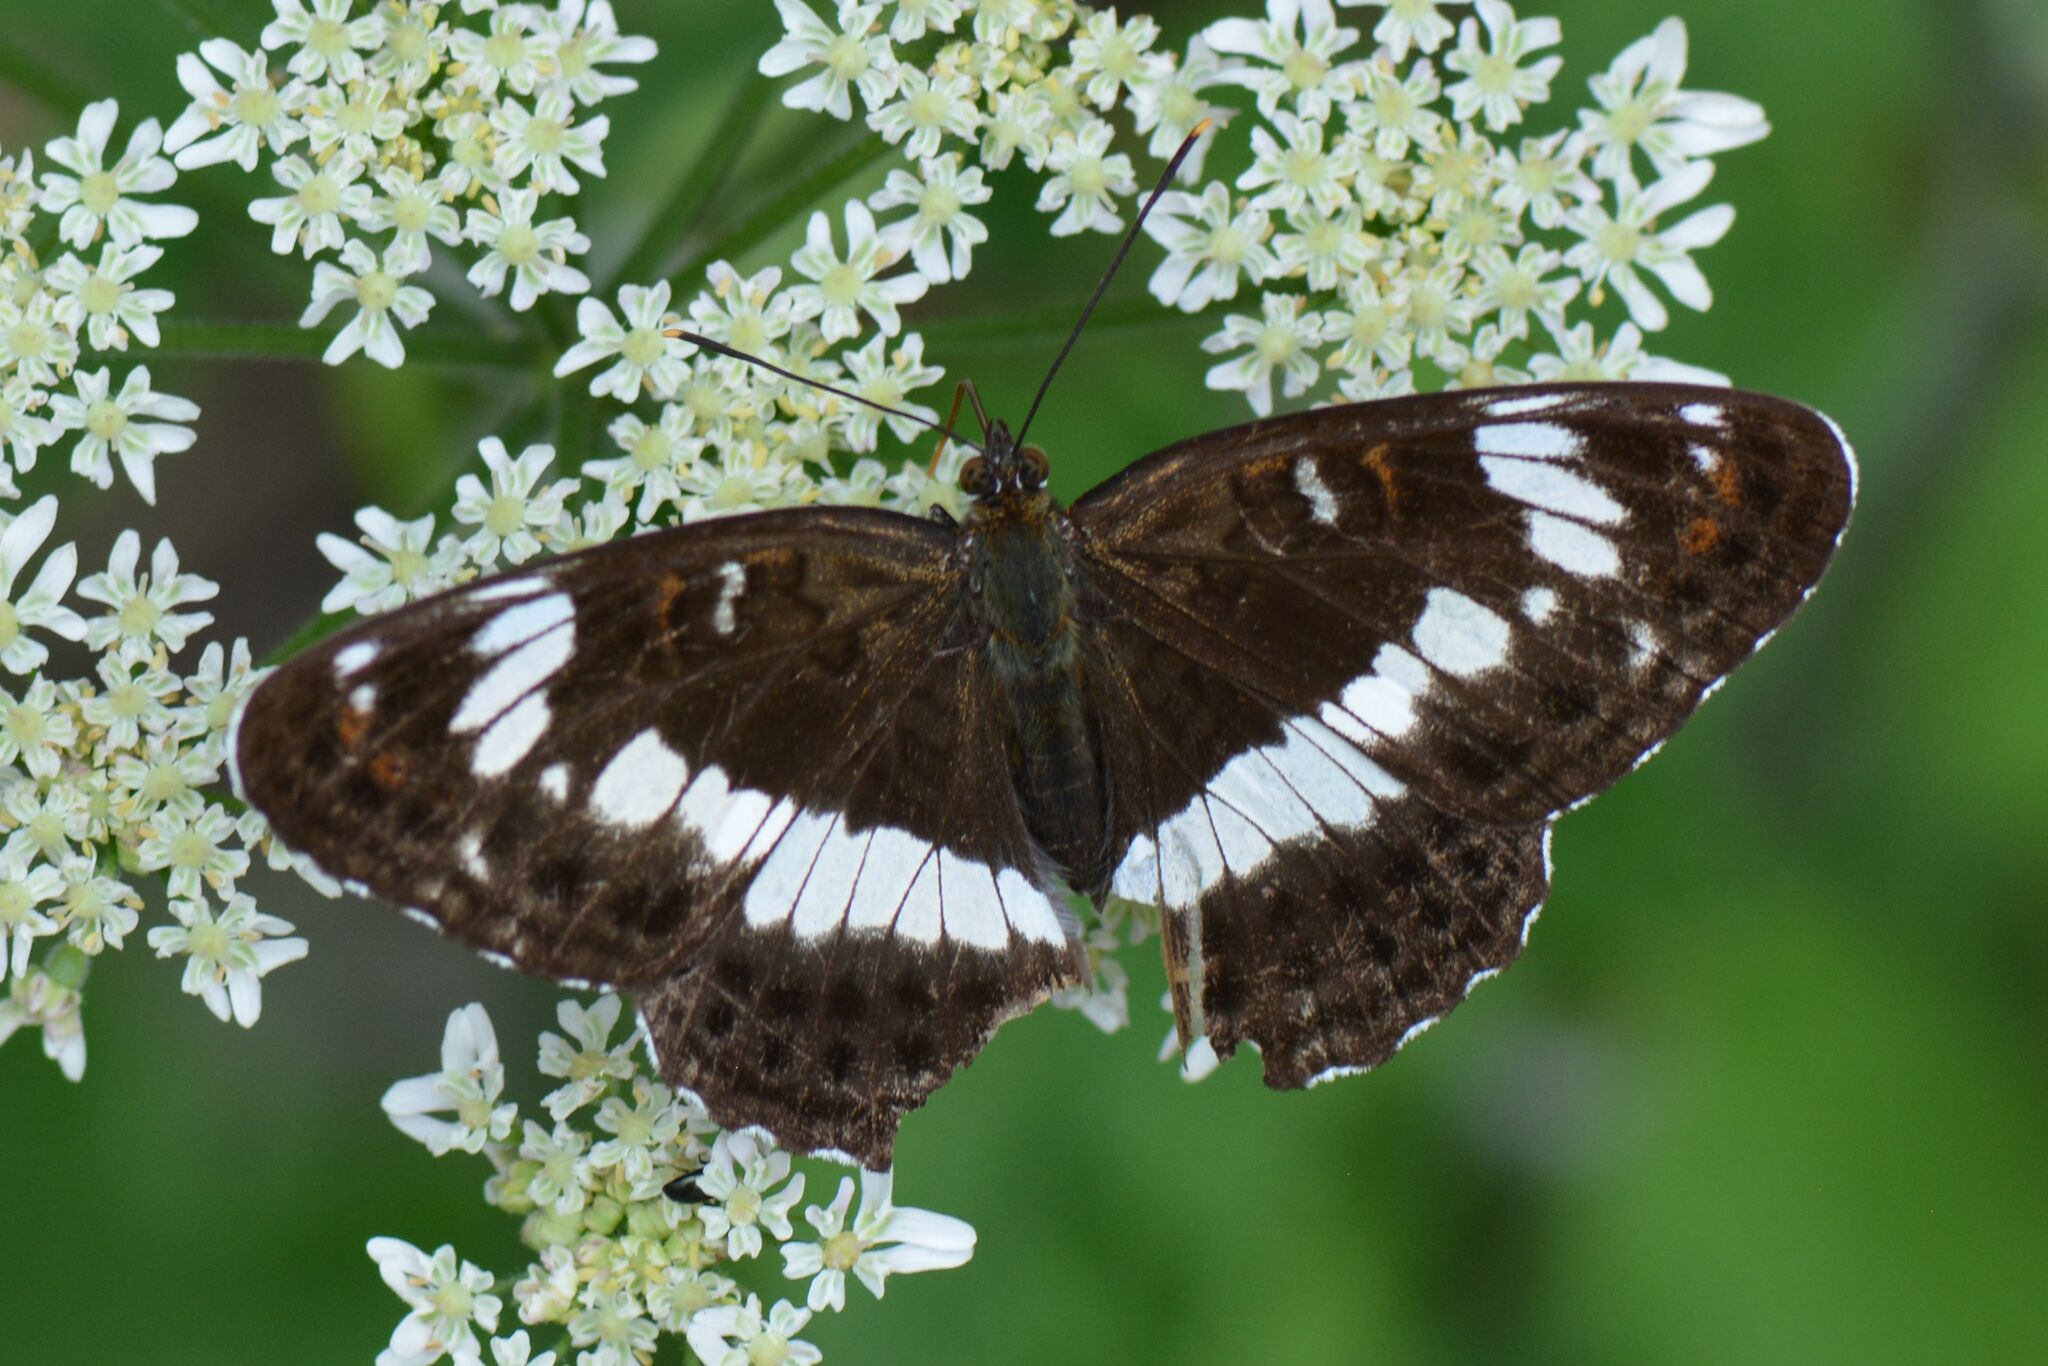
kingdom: Animalia
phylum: Arthropoda
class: Insecta
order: Lepidoptera
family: Nymphalidae
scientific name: Nymphalidae
